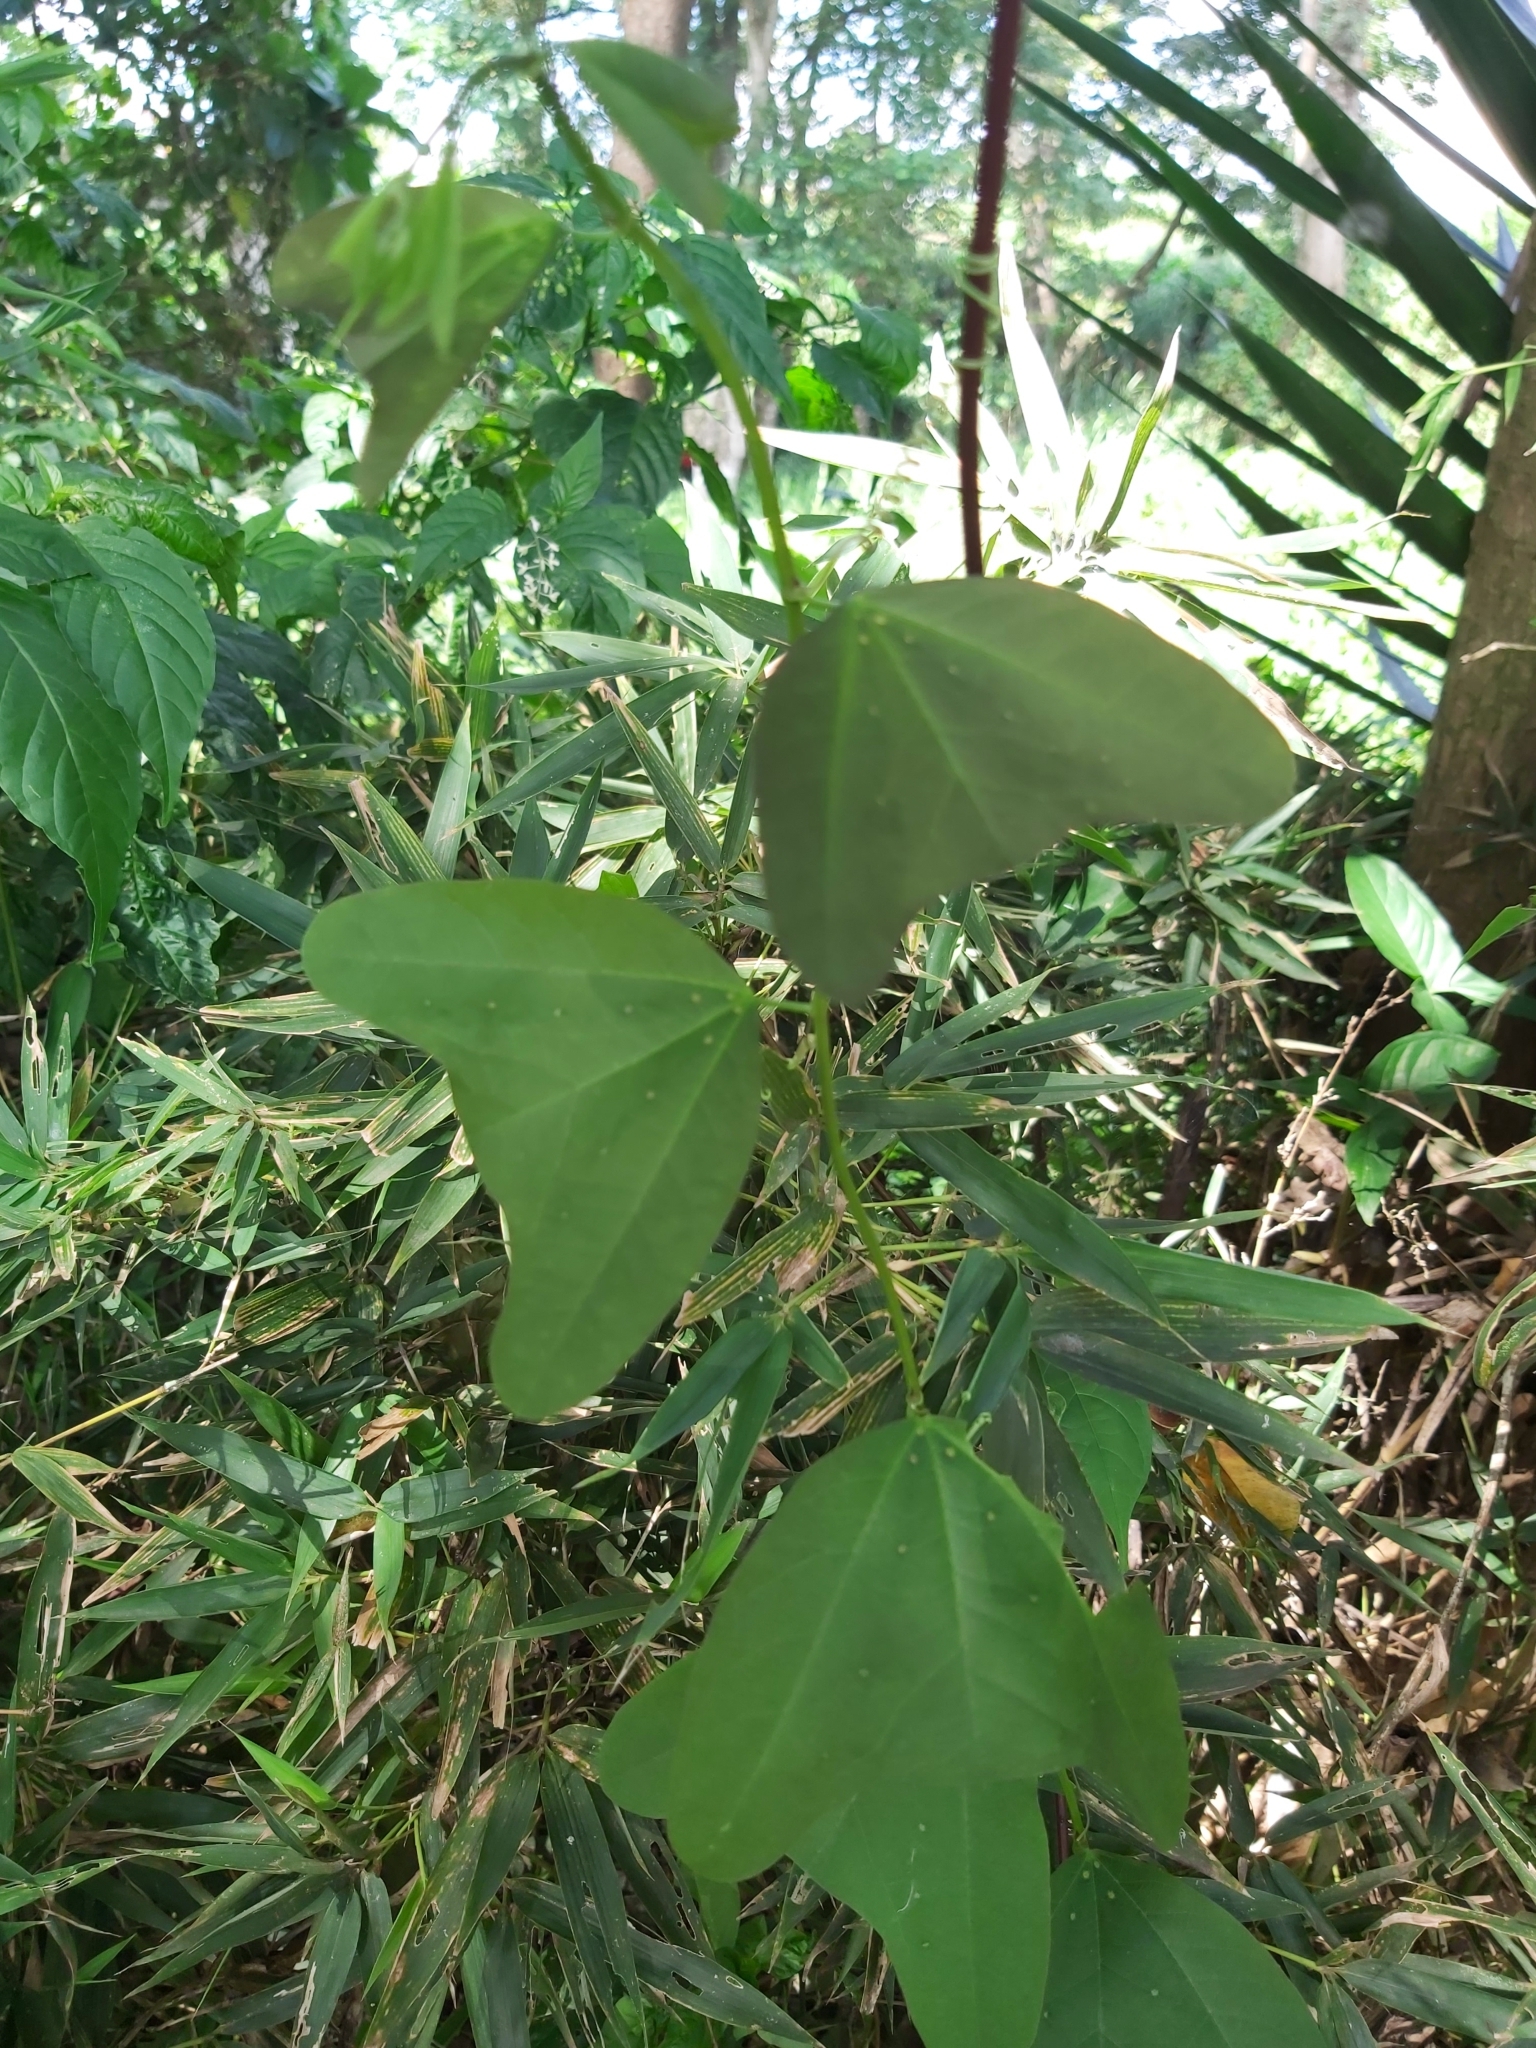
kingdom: Plantae
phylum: Tracheophyta
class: Magnoliopsida
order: Malpighiales
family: Passifloraceae
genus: Passiflora
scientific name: Passiflora biflora
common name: Twoflower passionflower
